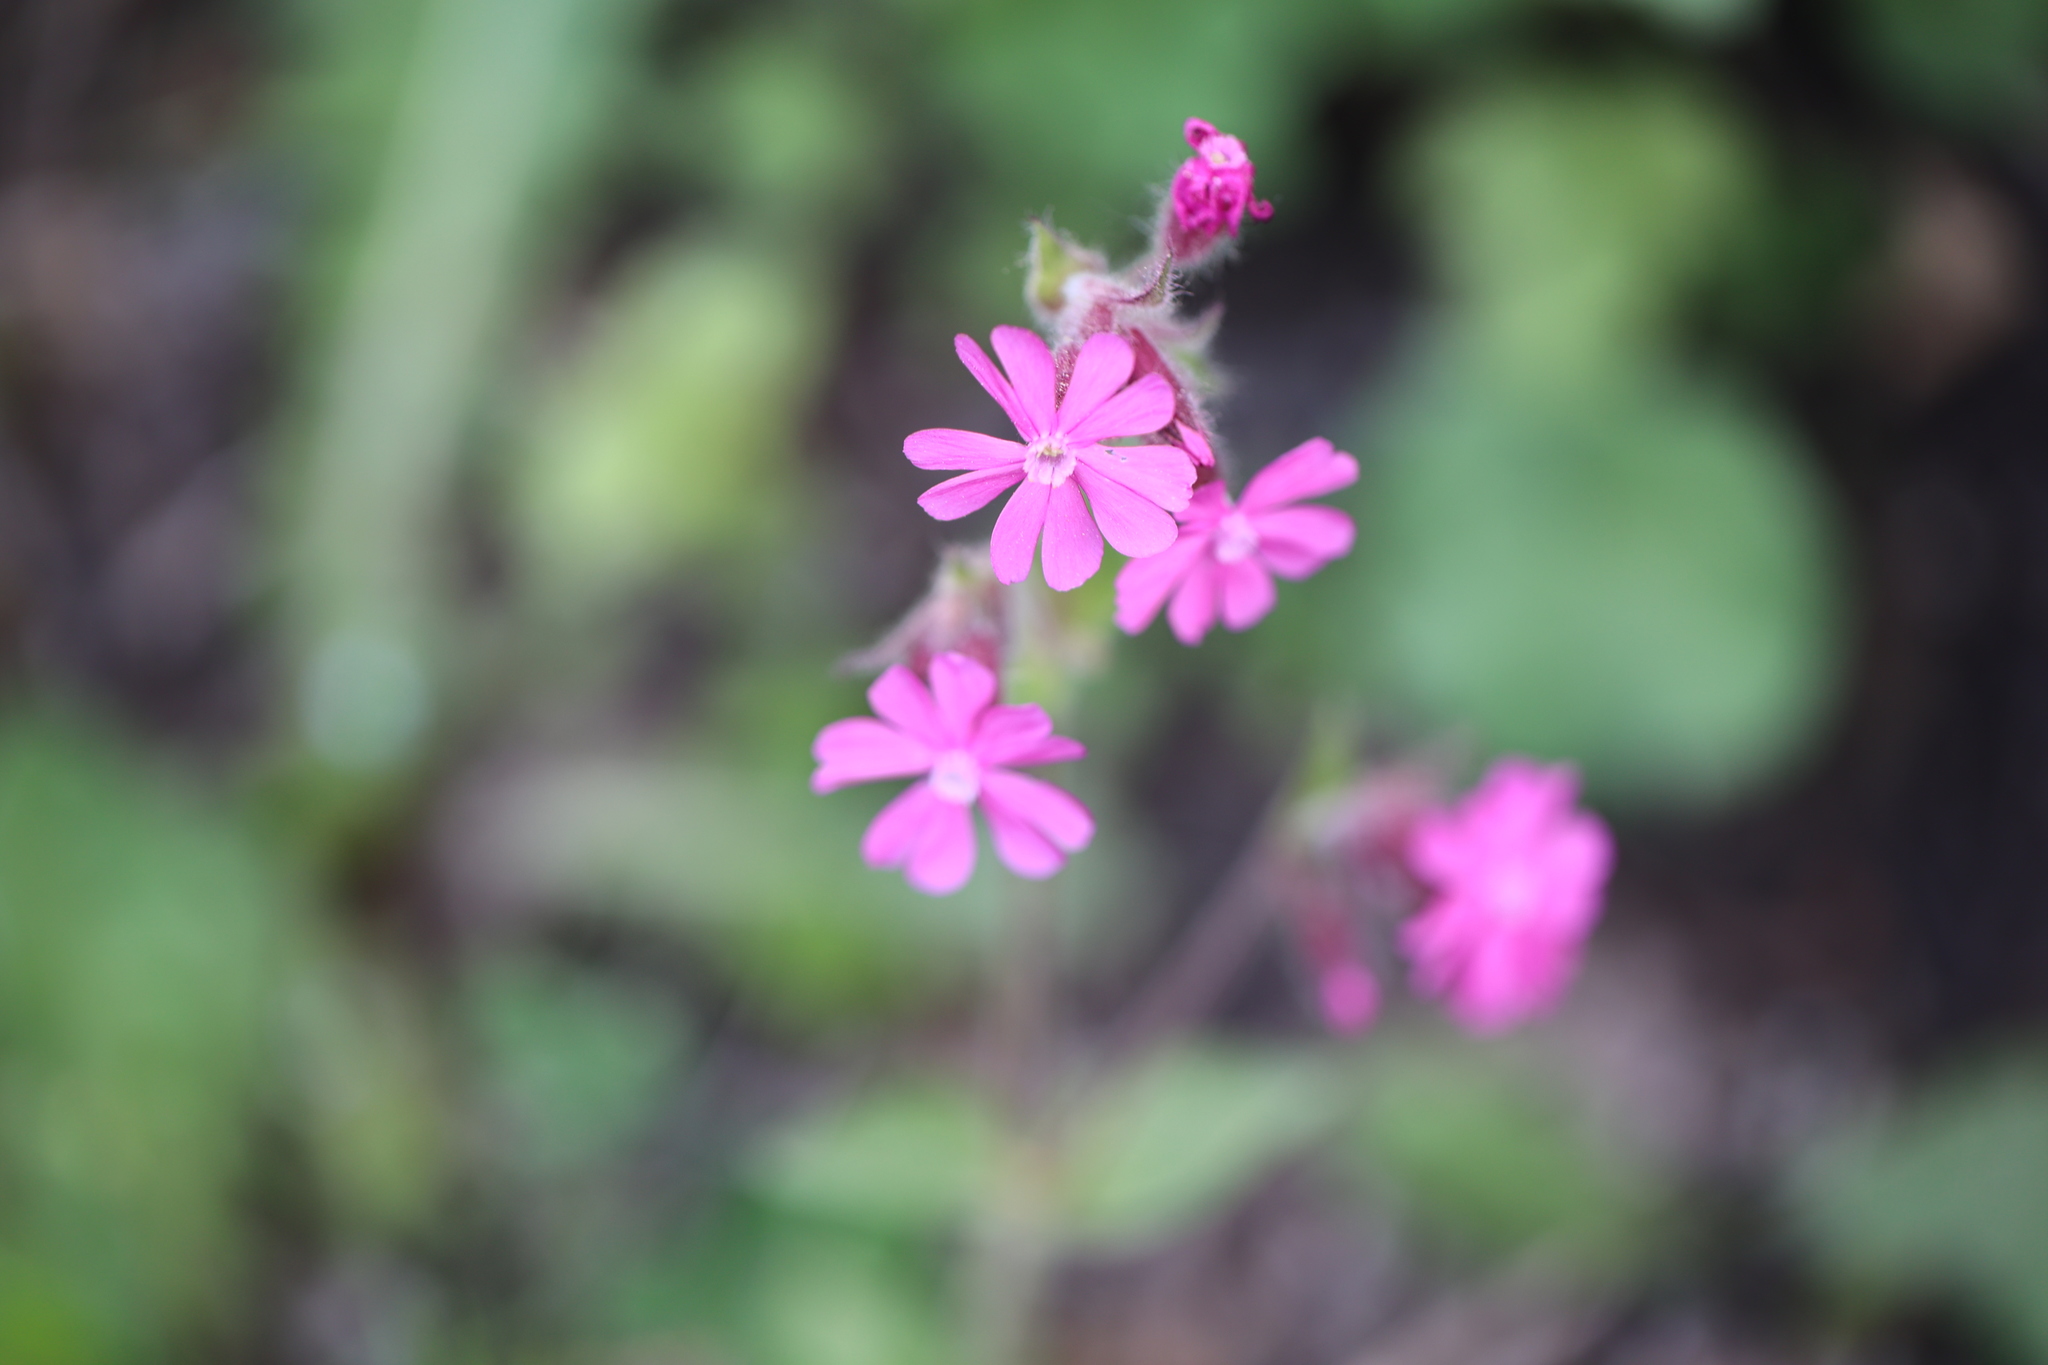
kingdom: Plantae
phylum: Tracheophyta
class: Magnoliopsida
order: Caryophyllales
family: Caryophyllaceae
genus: Silene
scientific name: Silene dioica
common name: Red campion
